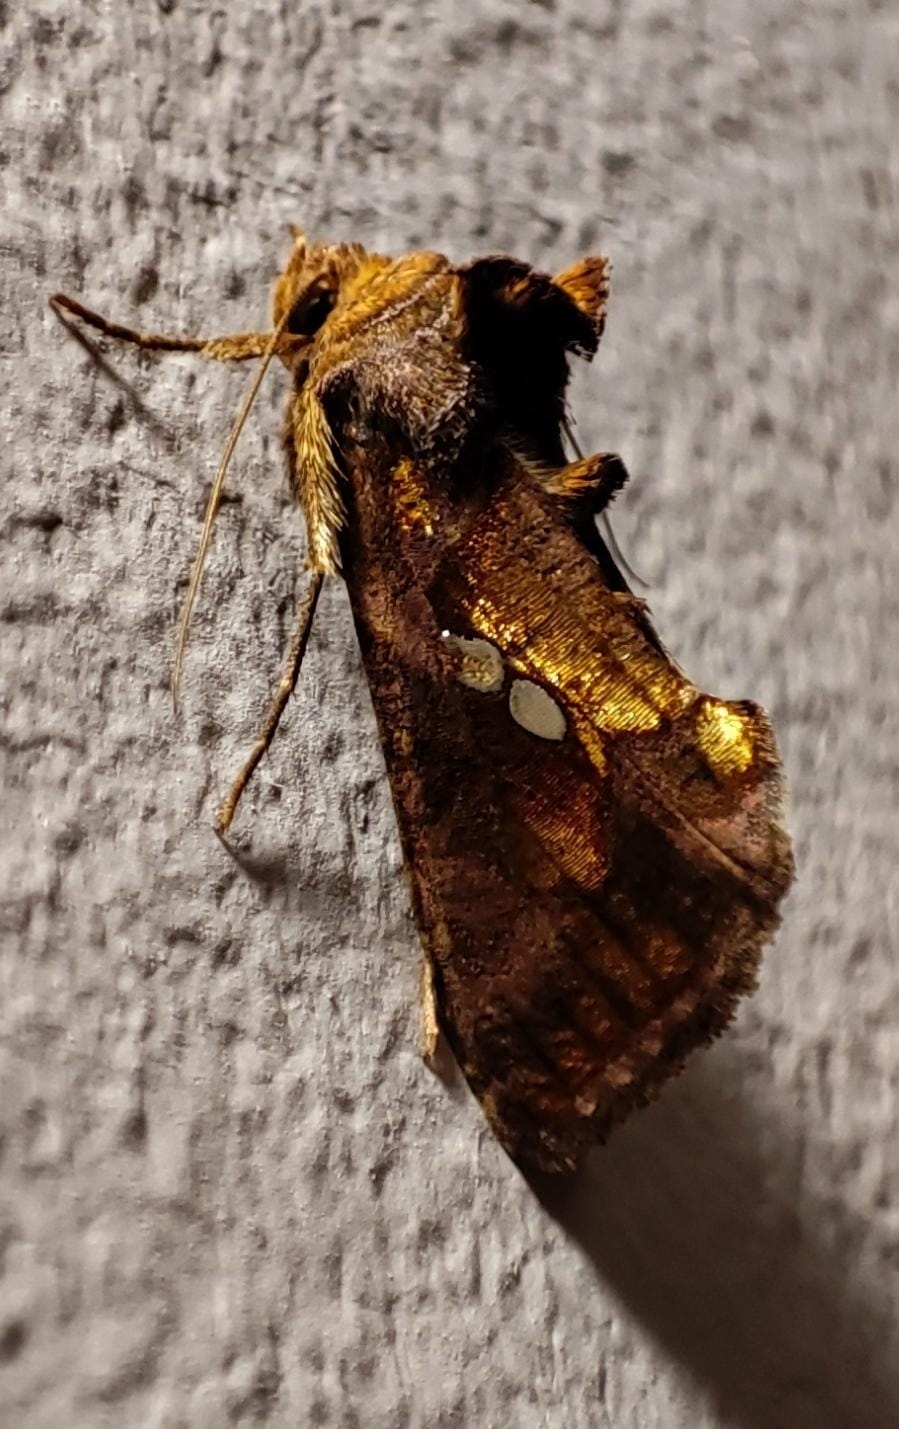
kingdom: Animalia
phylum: Arthropoda
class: Insecta
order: Lepidoptera
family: Noctuidae
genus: Chrysodeixis
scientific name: Chrysodeixis chalcites
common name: Golden twin-spot
